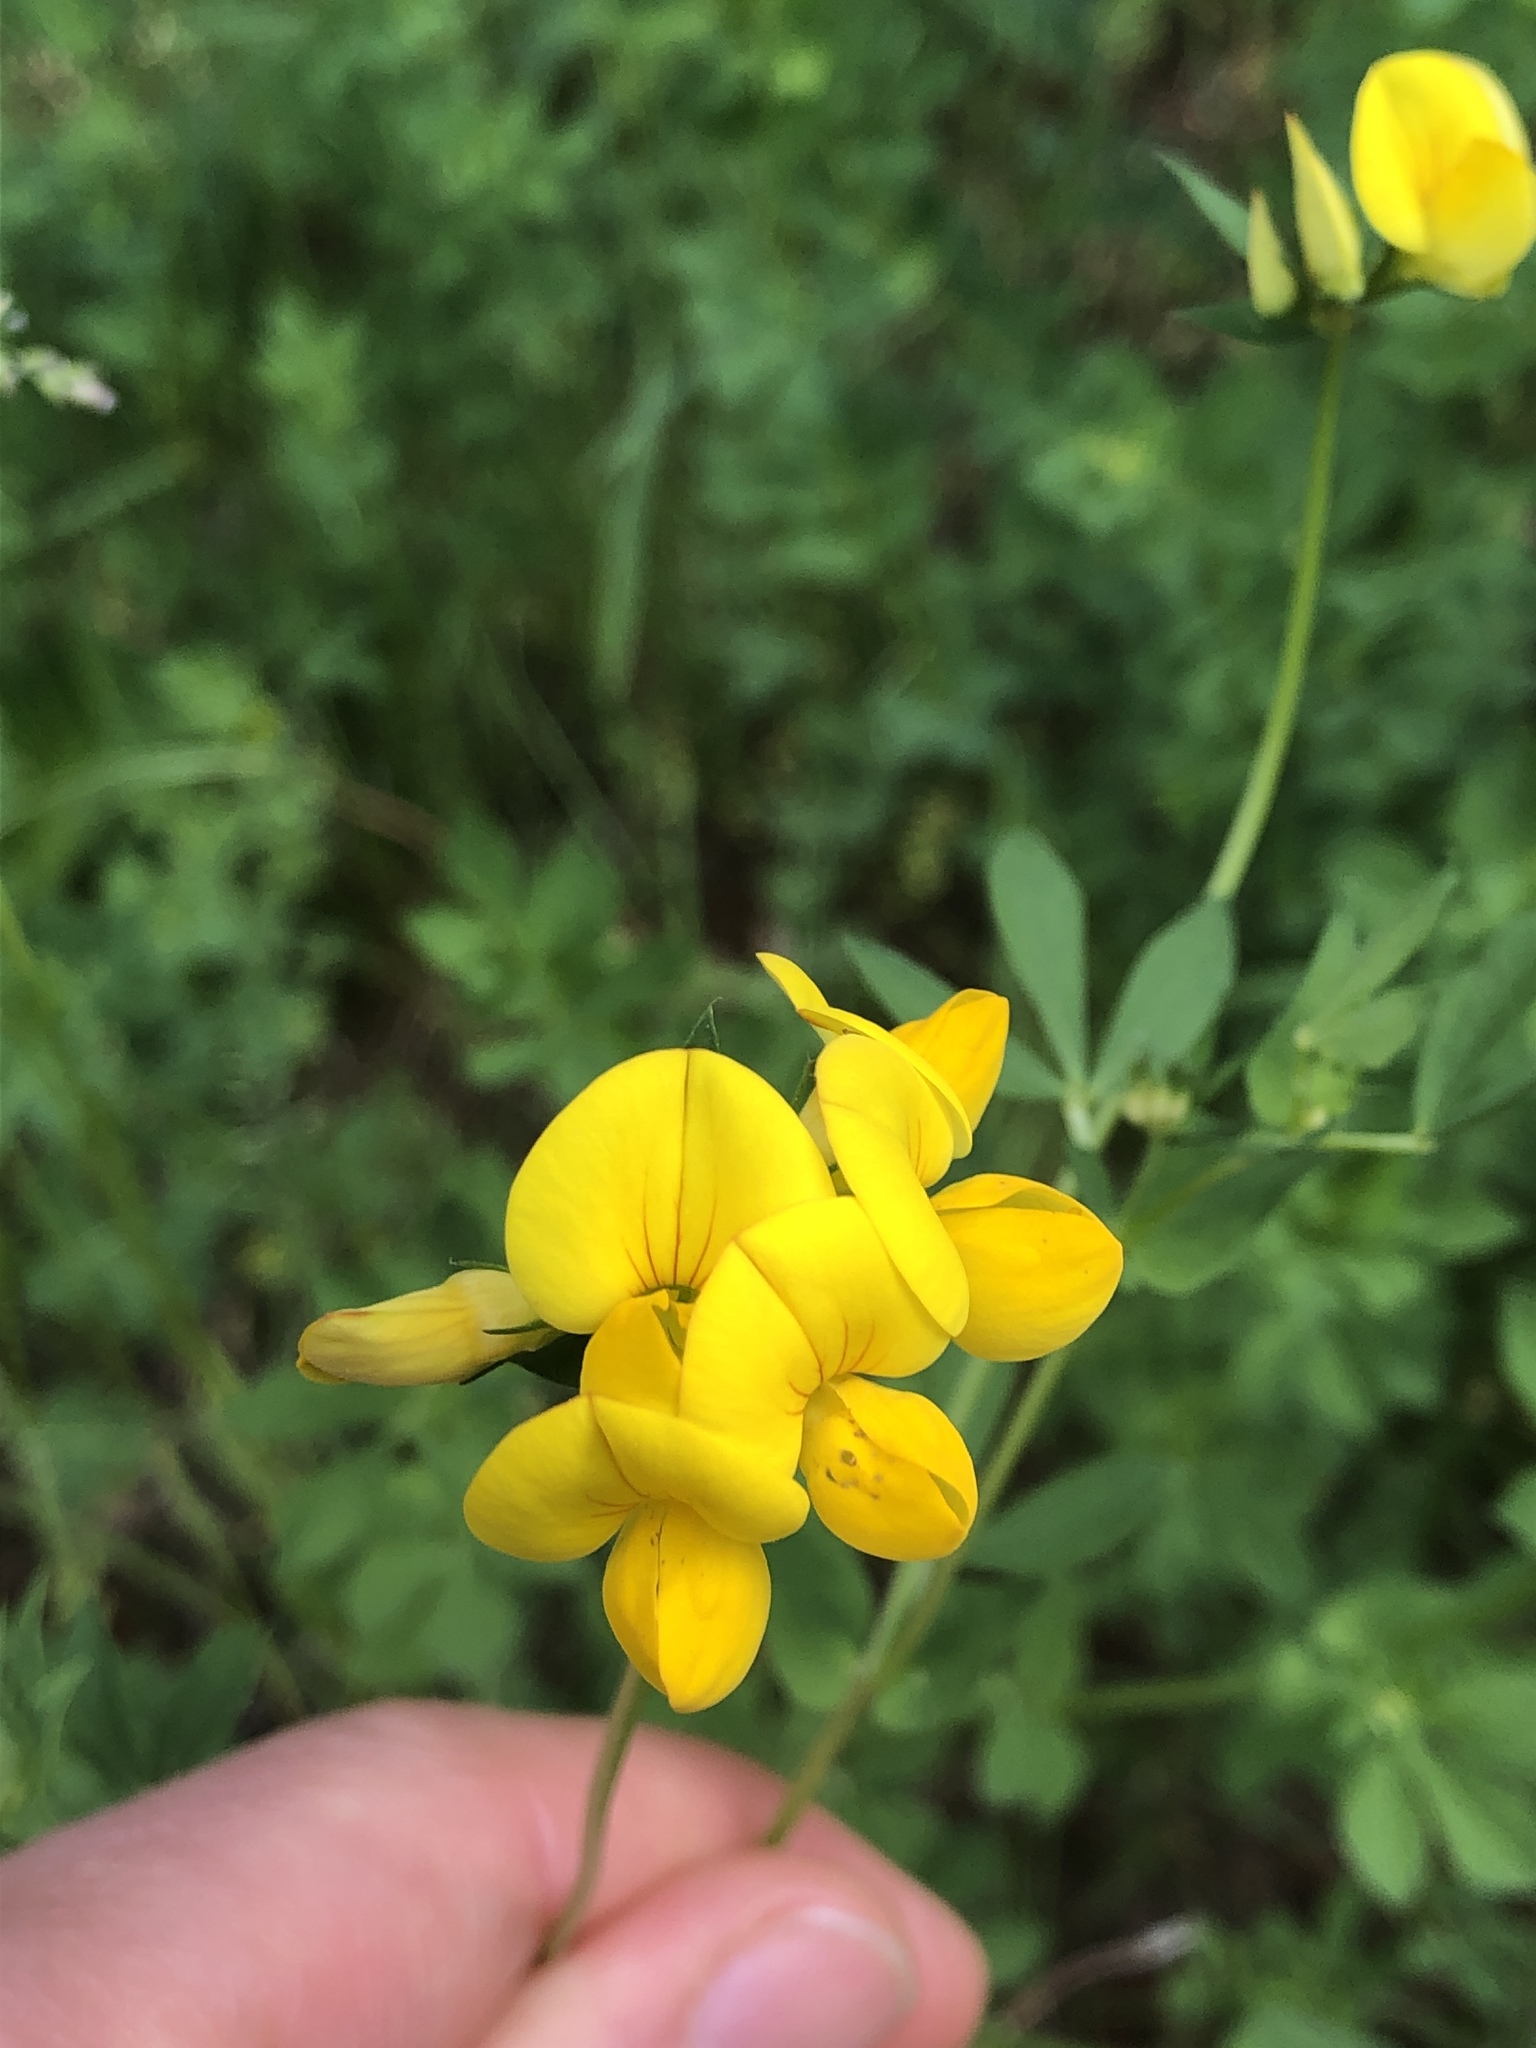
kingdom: Plantae
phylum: Tracheophyta
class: Magnoliopsida
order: Fabales
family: Fabaceae
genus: Lotus
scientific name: Lotus corniculatus
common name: Common bird's-foot-trefoil
